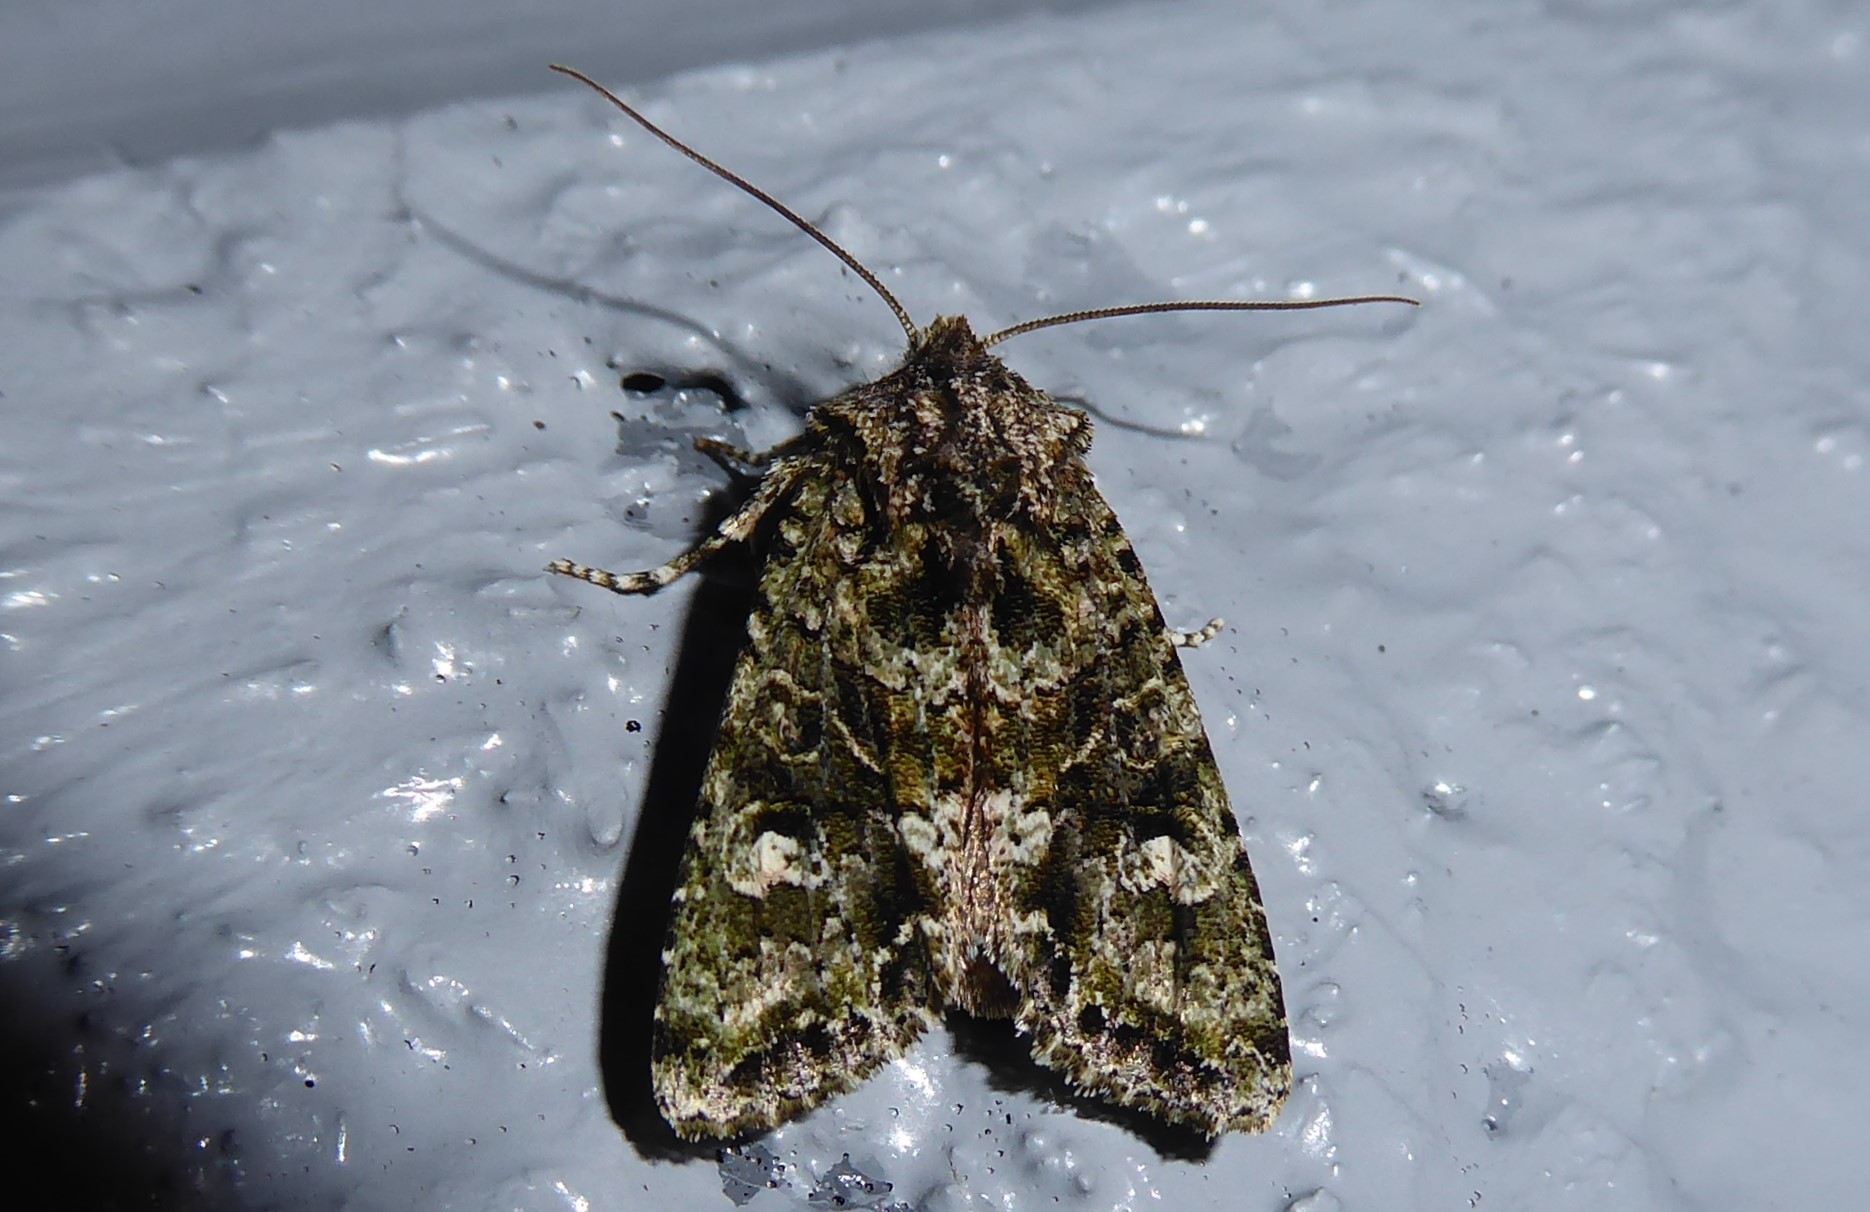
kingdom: Animalia
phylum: Arthropoda
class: Insecta
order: Lepidoptera
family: Noctuidae
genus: Ichneutica
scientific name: Ichneutica
